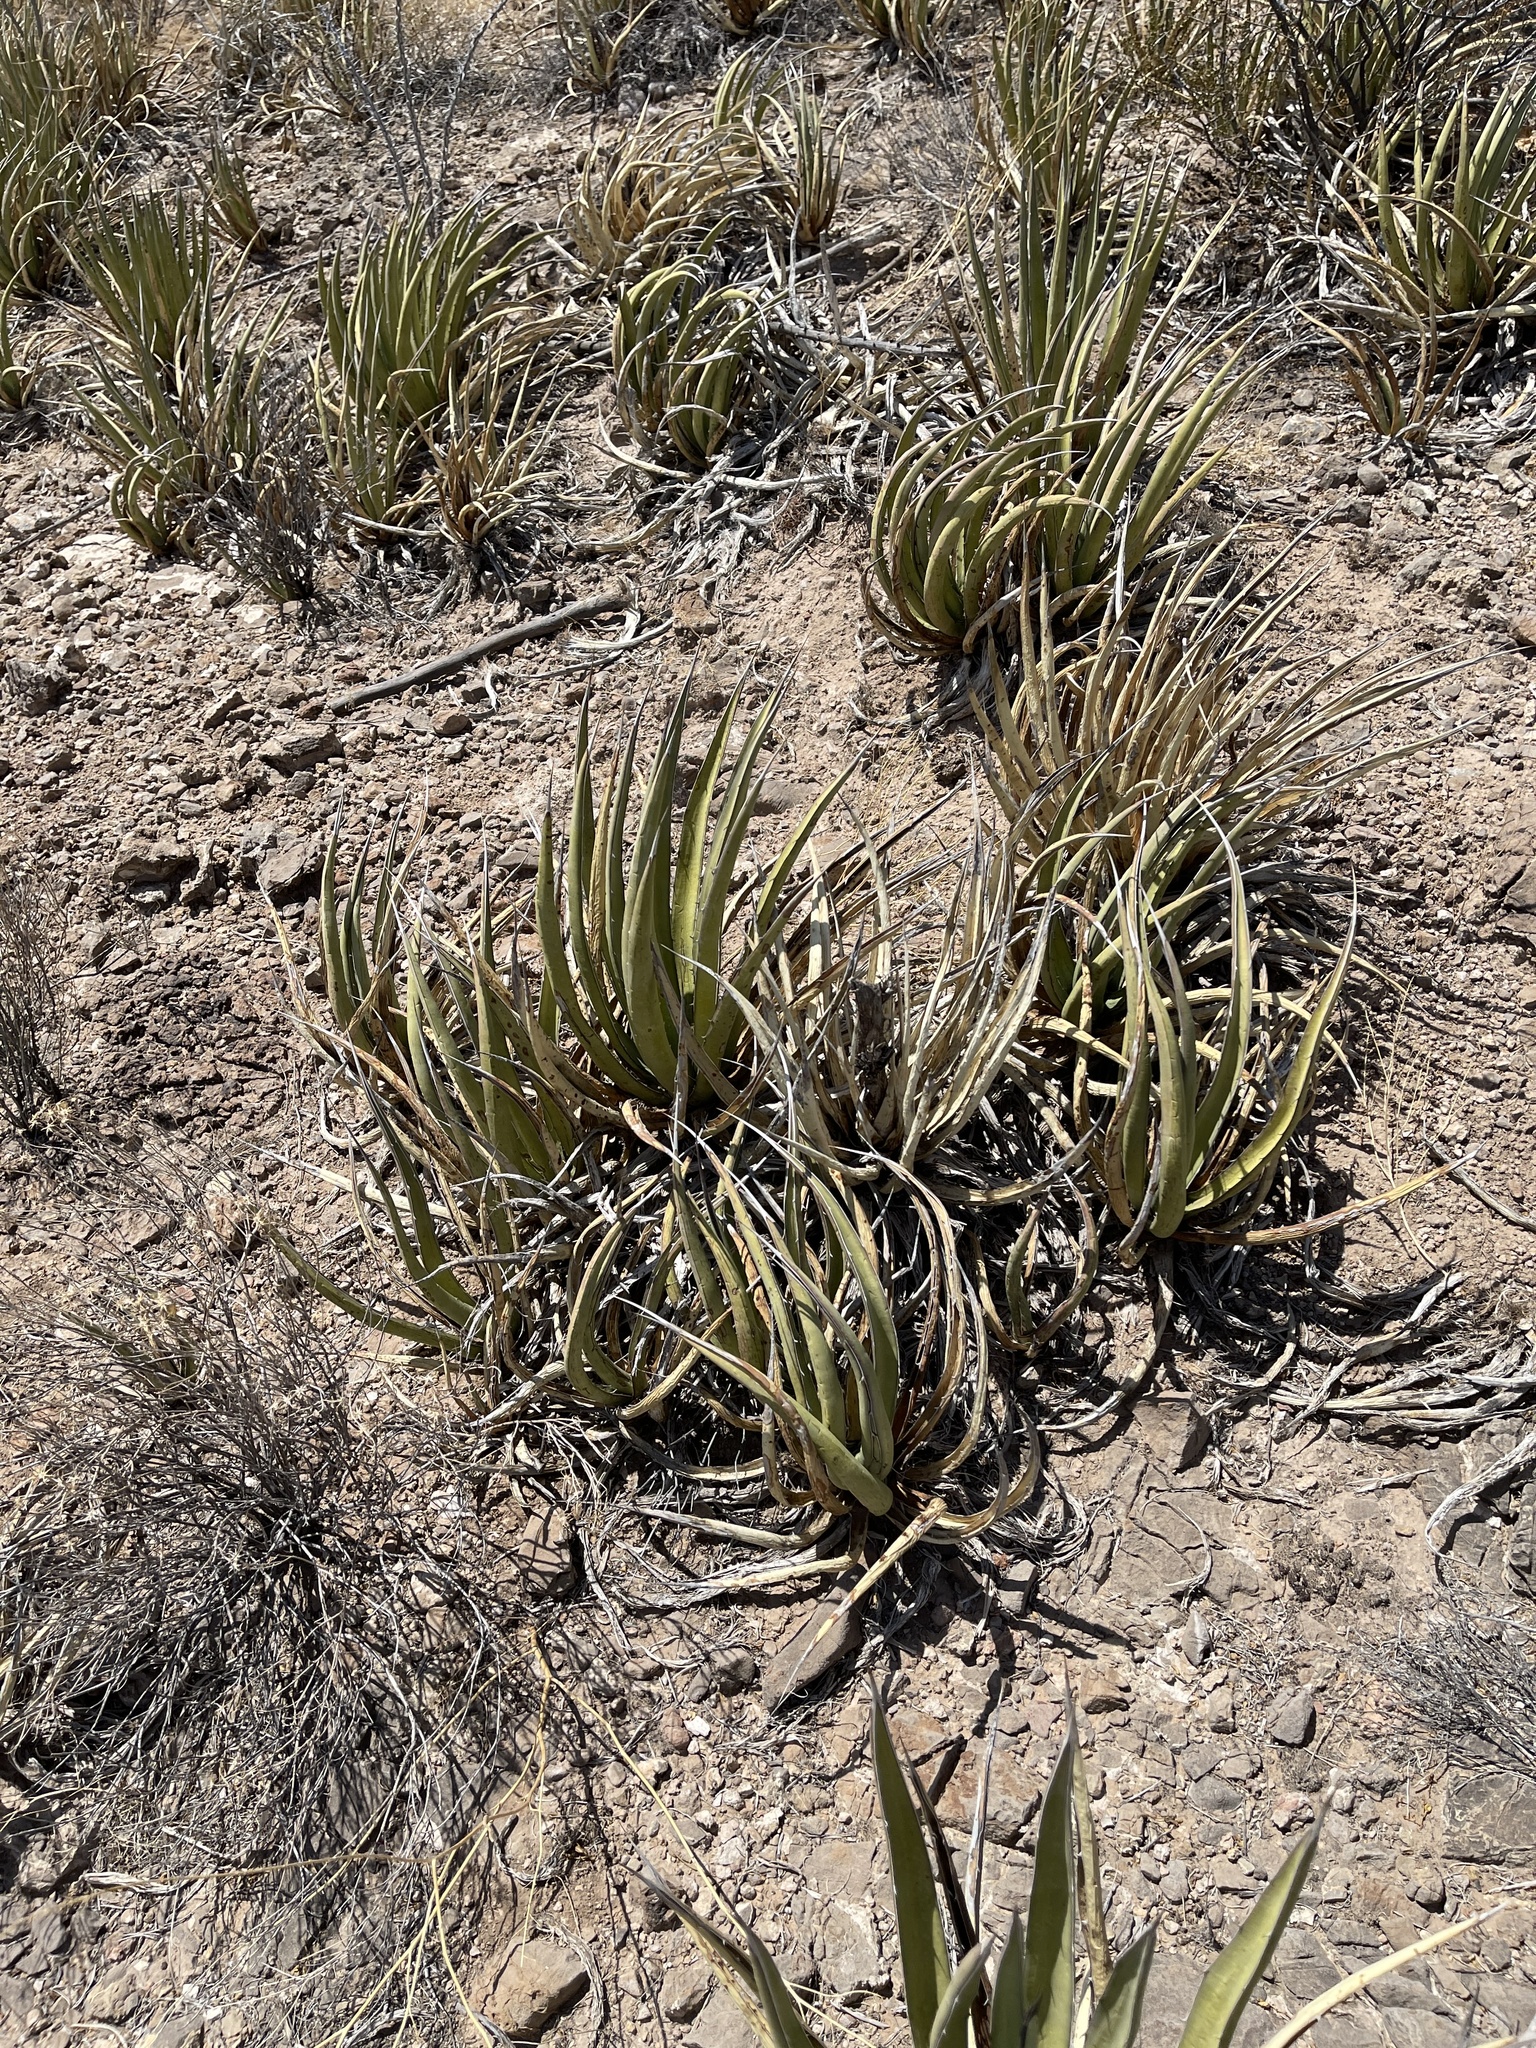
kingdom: Plantae
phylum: Tracheophyta
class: Liliopsida
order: Asparagales
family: Asparagaceae
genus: Agave
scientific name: Agave lechuguilla
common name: Lecheguilla agave
